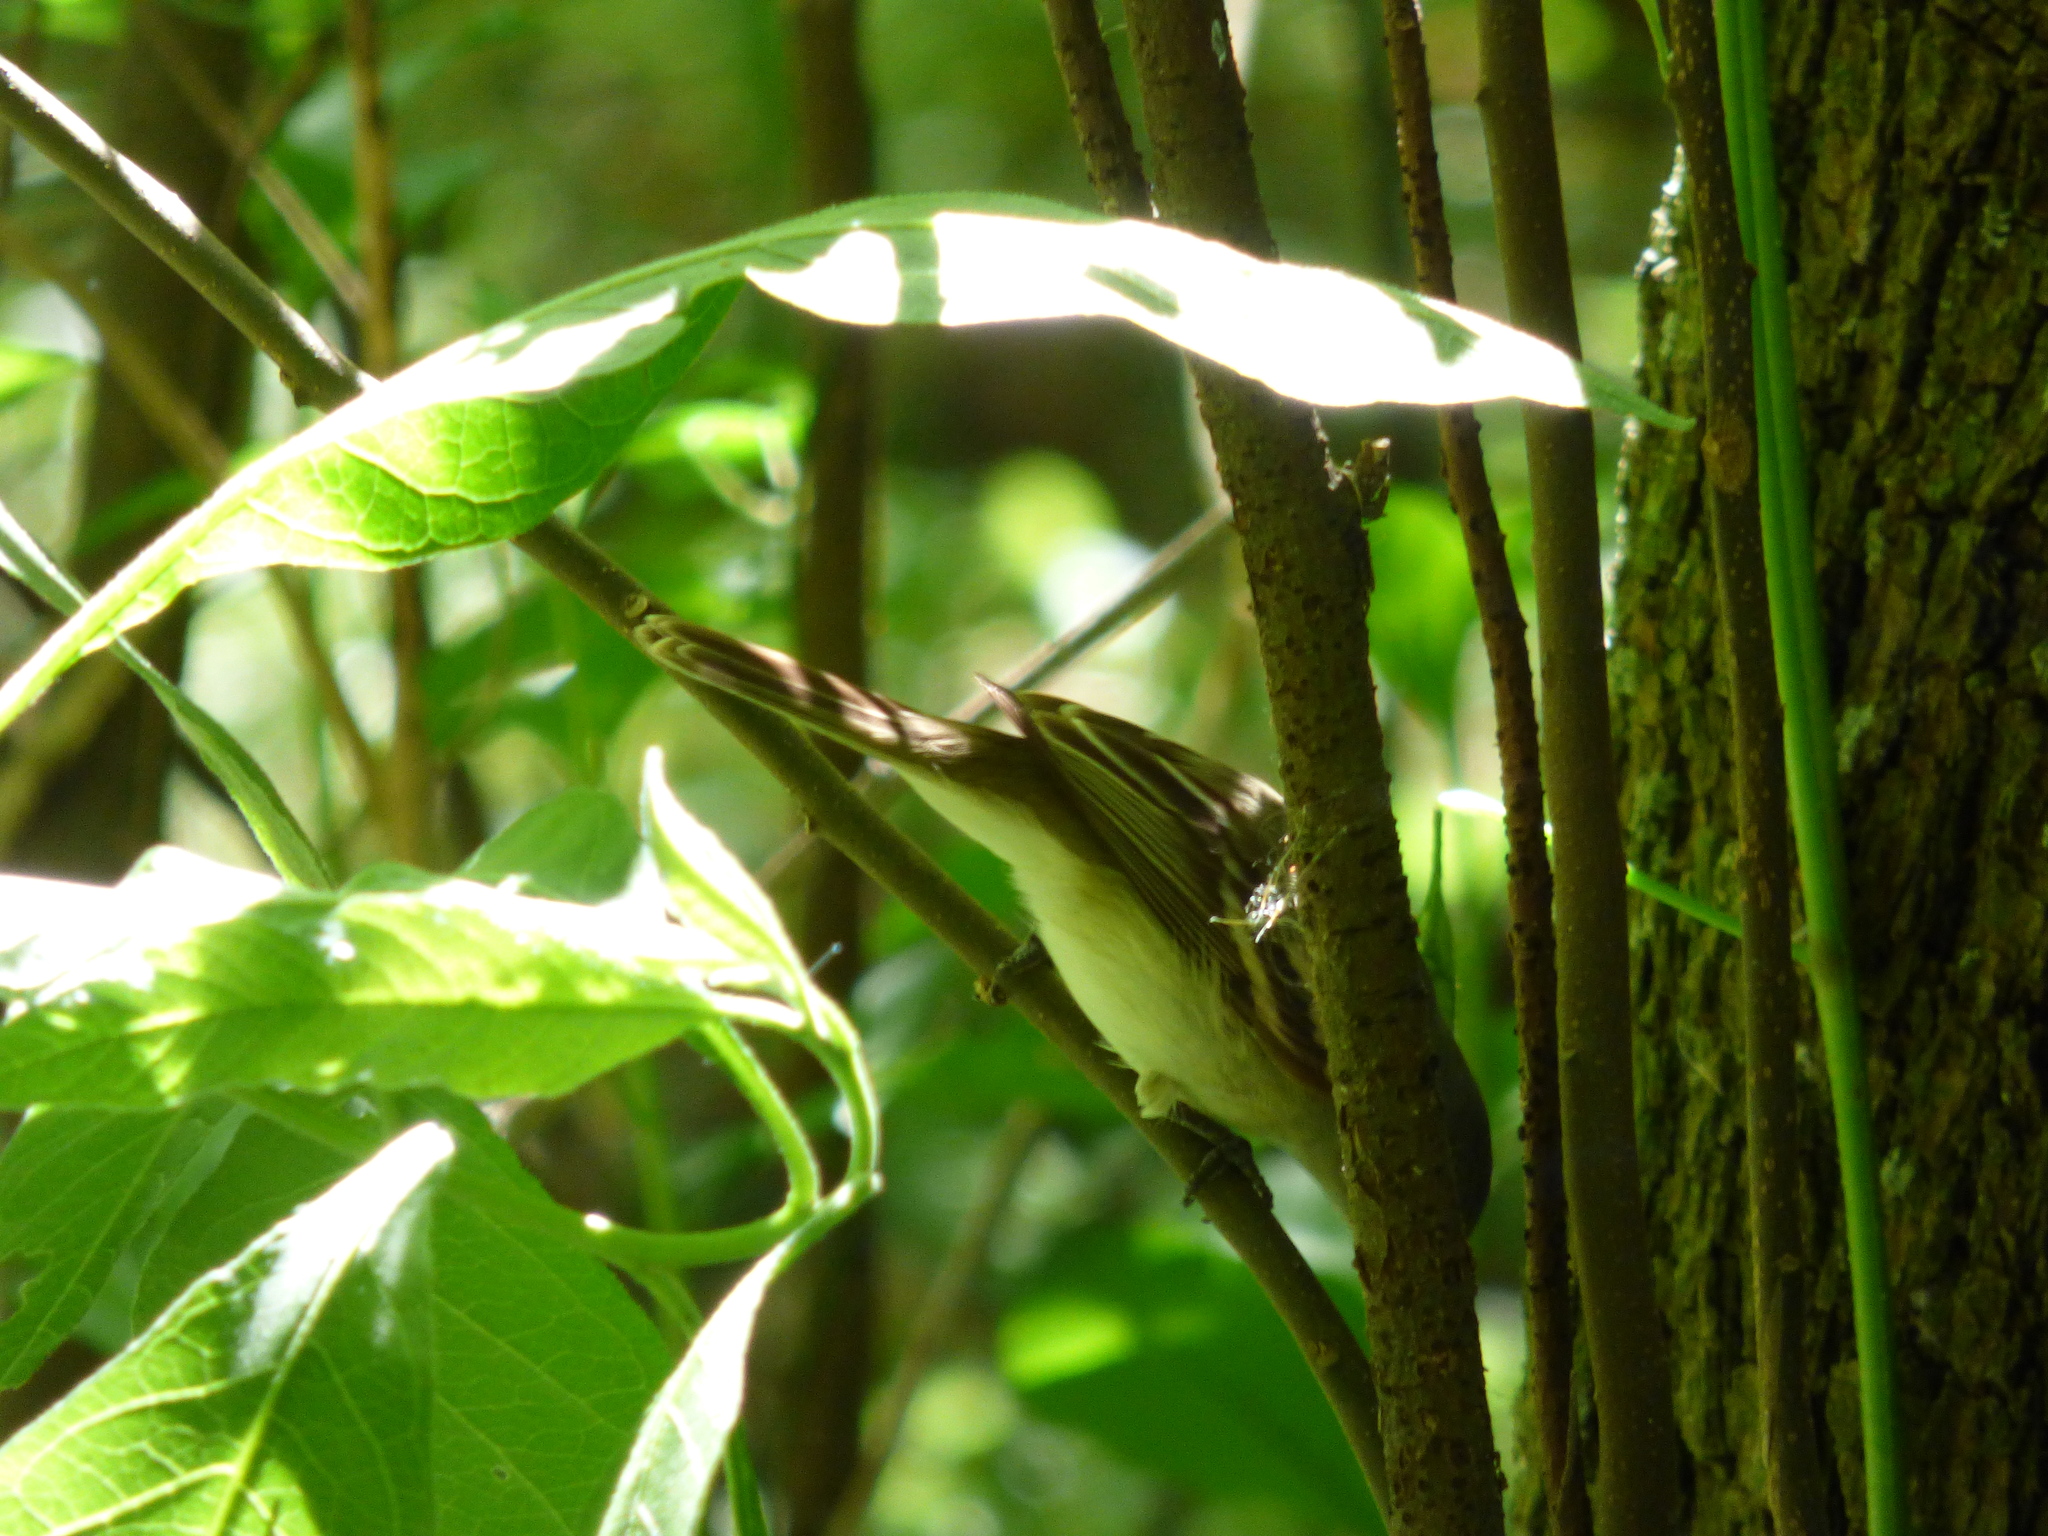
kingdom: Animalia
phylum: Chordata
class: Aves
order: Passeriformes
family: Tyrannidae
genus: Camptostoma
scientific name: Camptostoma obsoletum
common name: Southern beardless-tyrannulet
